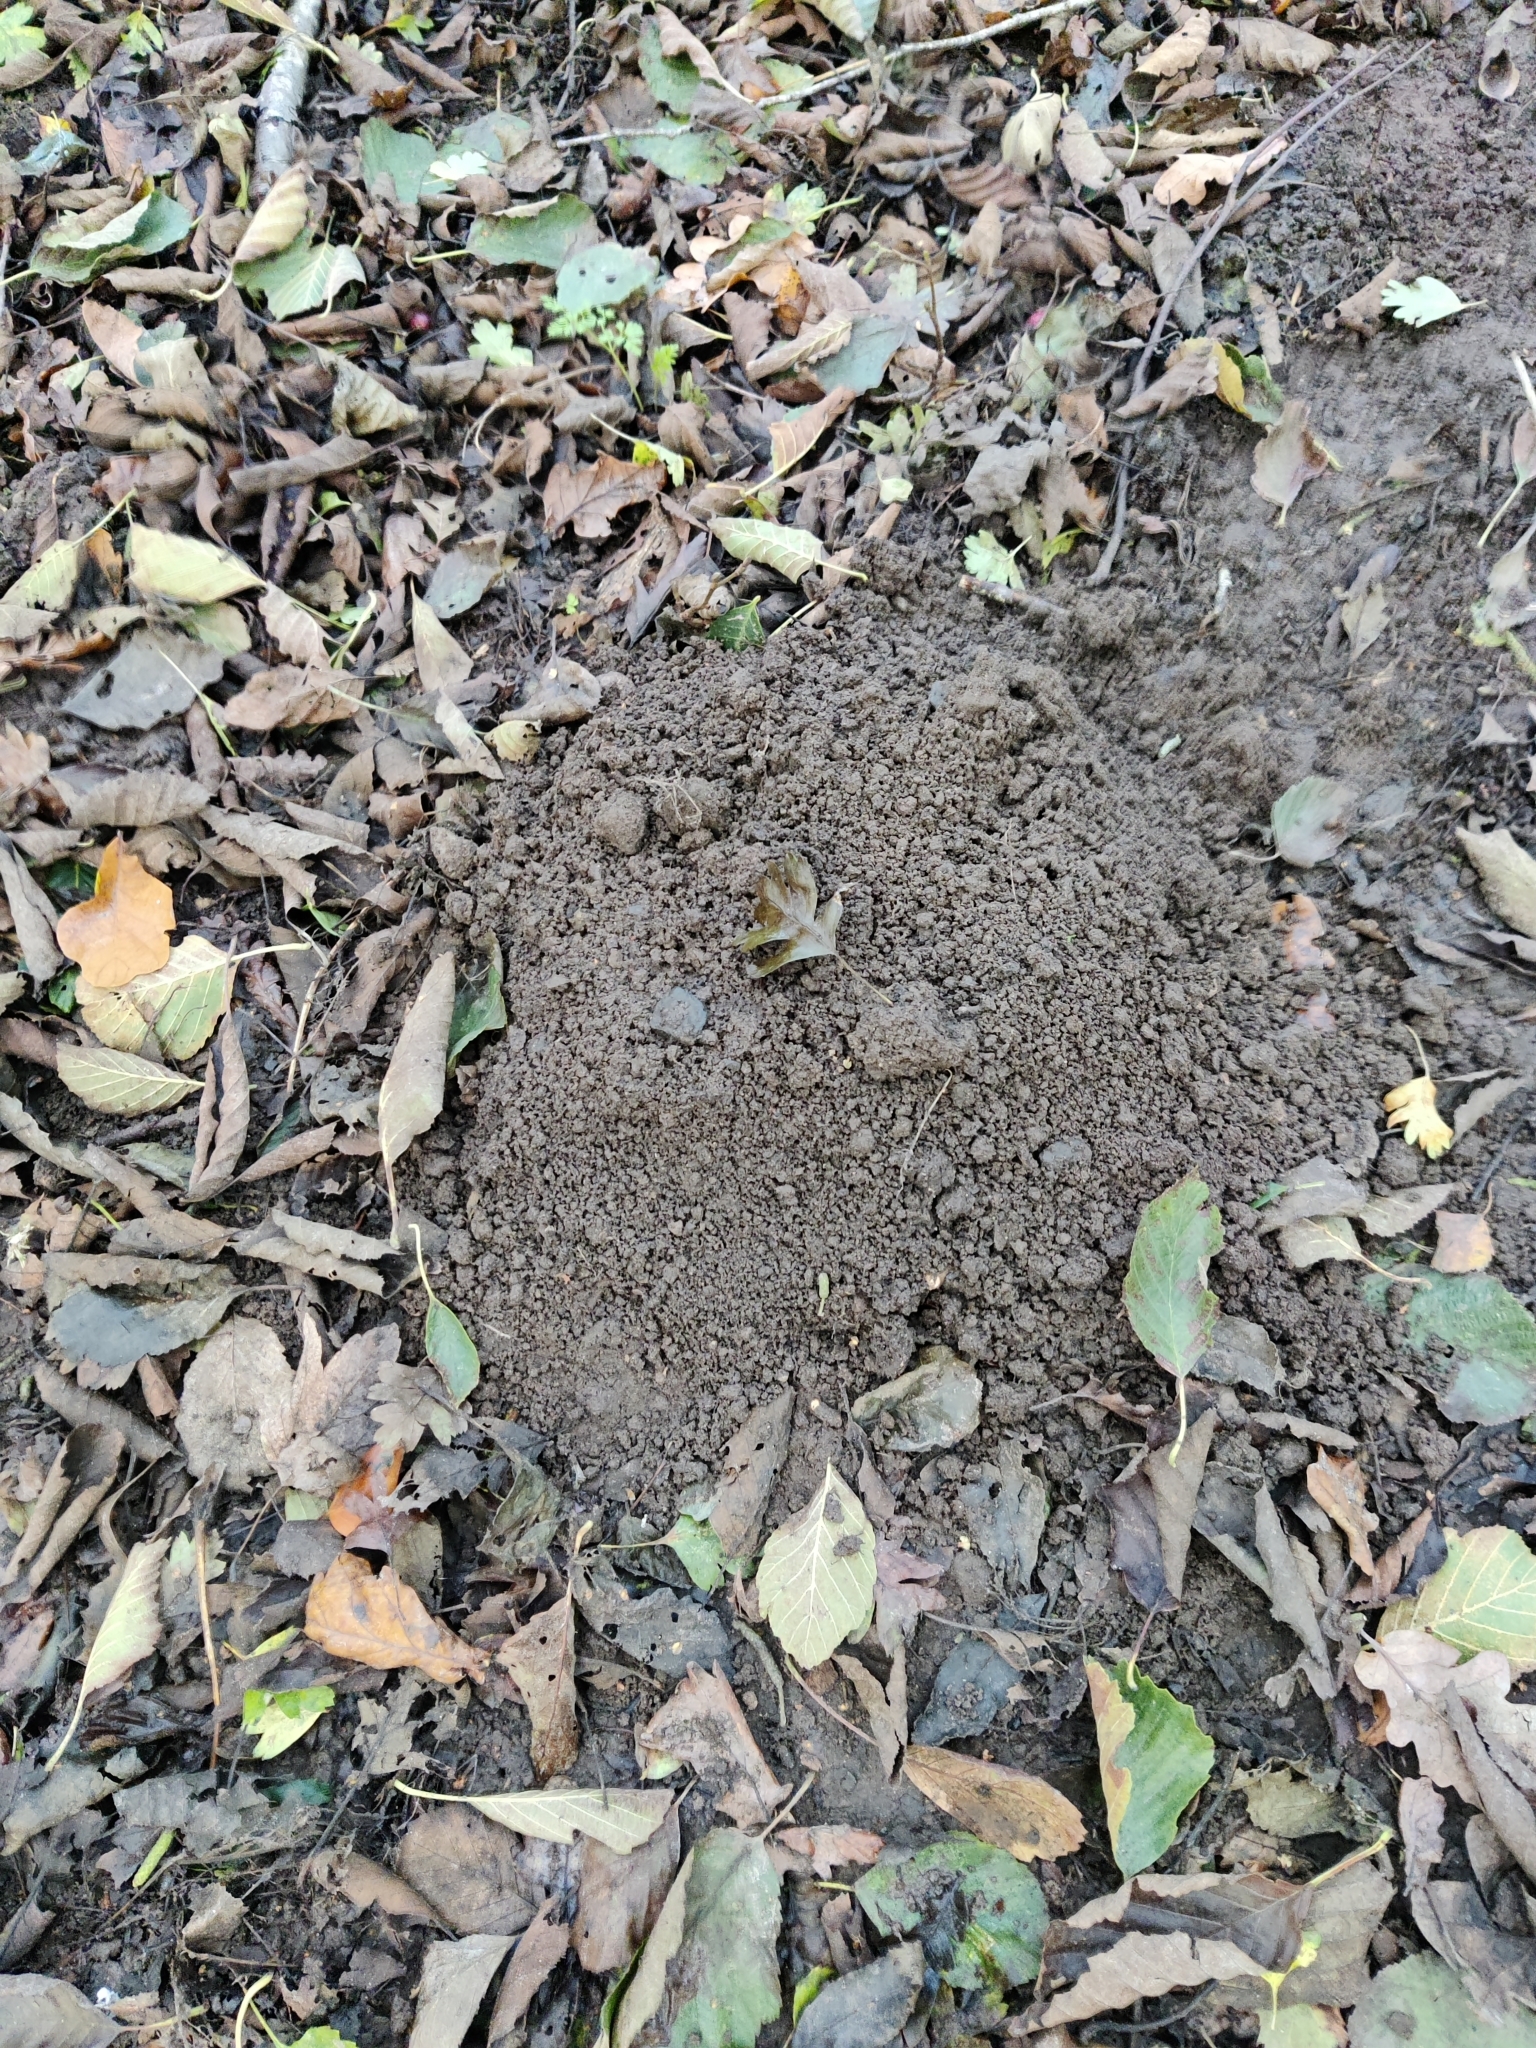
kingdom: Animalia
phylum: Chordata
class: Mammalia
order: Soricomorpha
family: Talpidae
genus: Talpa
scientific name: Talpa europaea
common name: European mole
